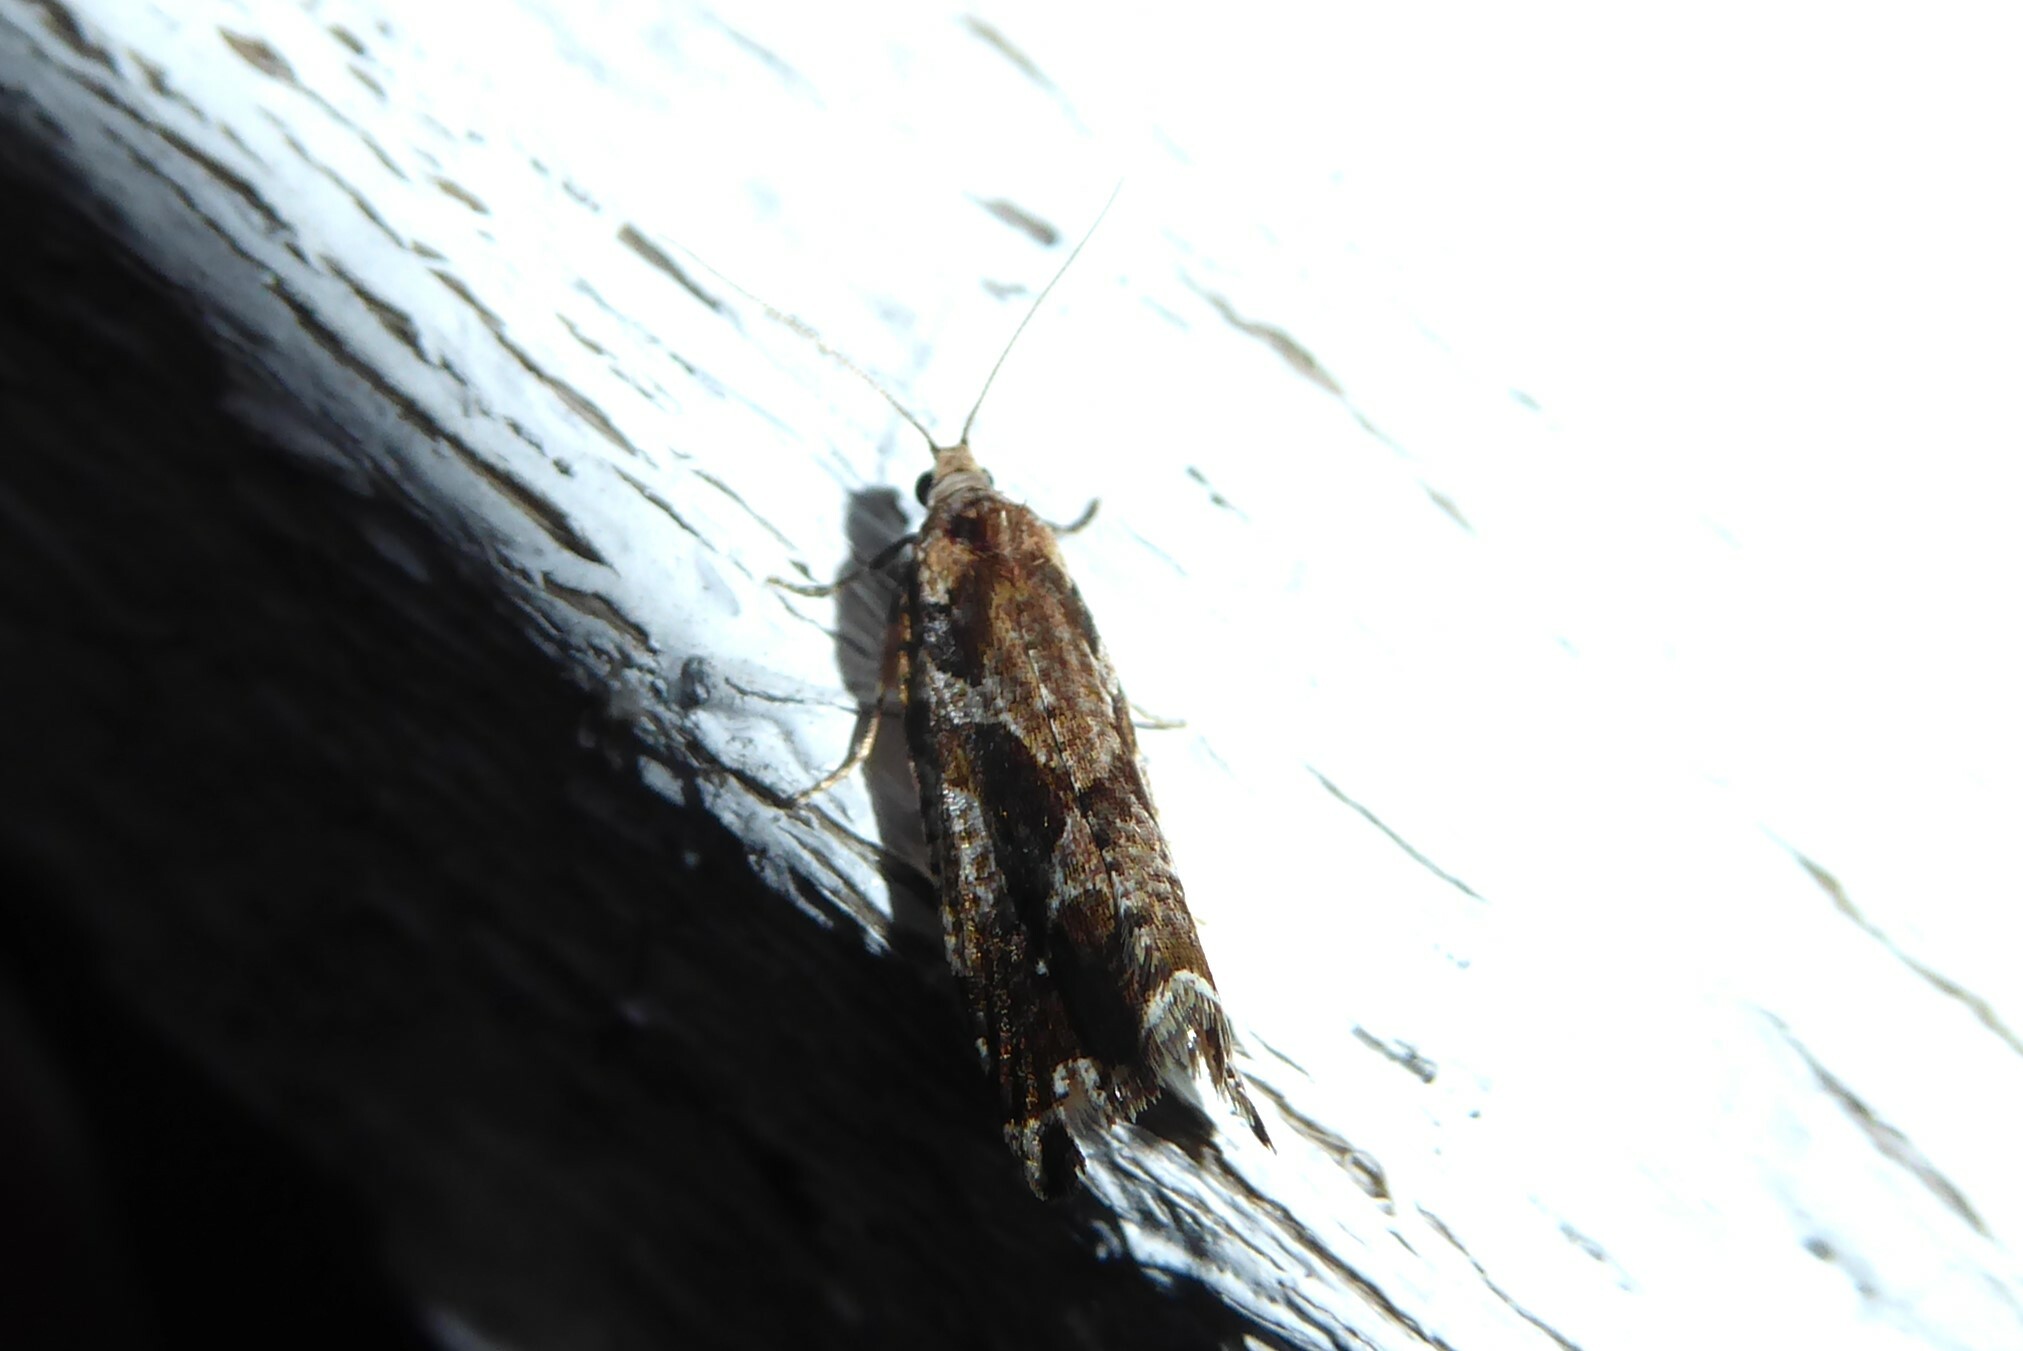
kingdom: Animalia
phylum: Arthropoda
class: Insecta
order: Lepidoptera
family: Tortricidae
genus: Pyrgotis
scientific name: Pyrgotis plagiatana
